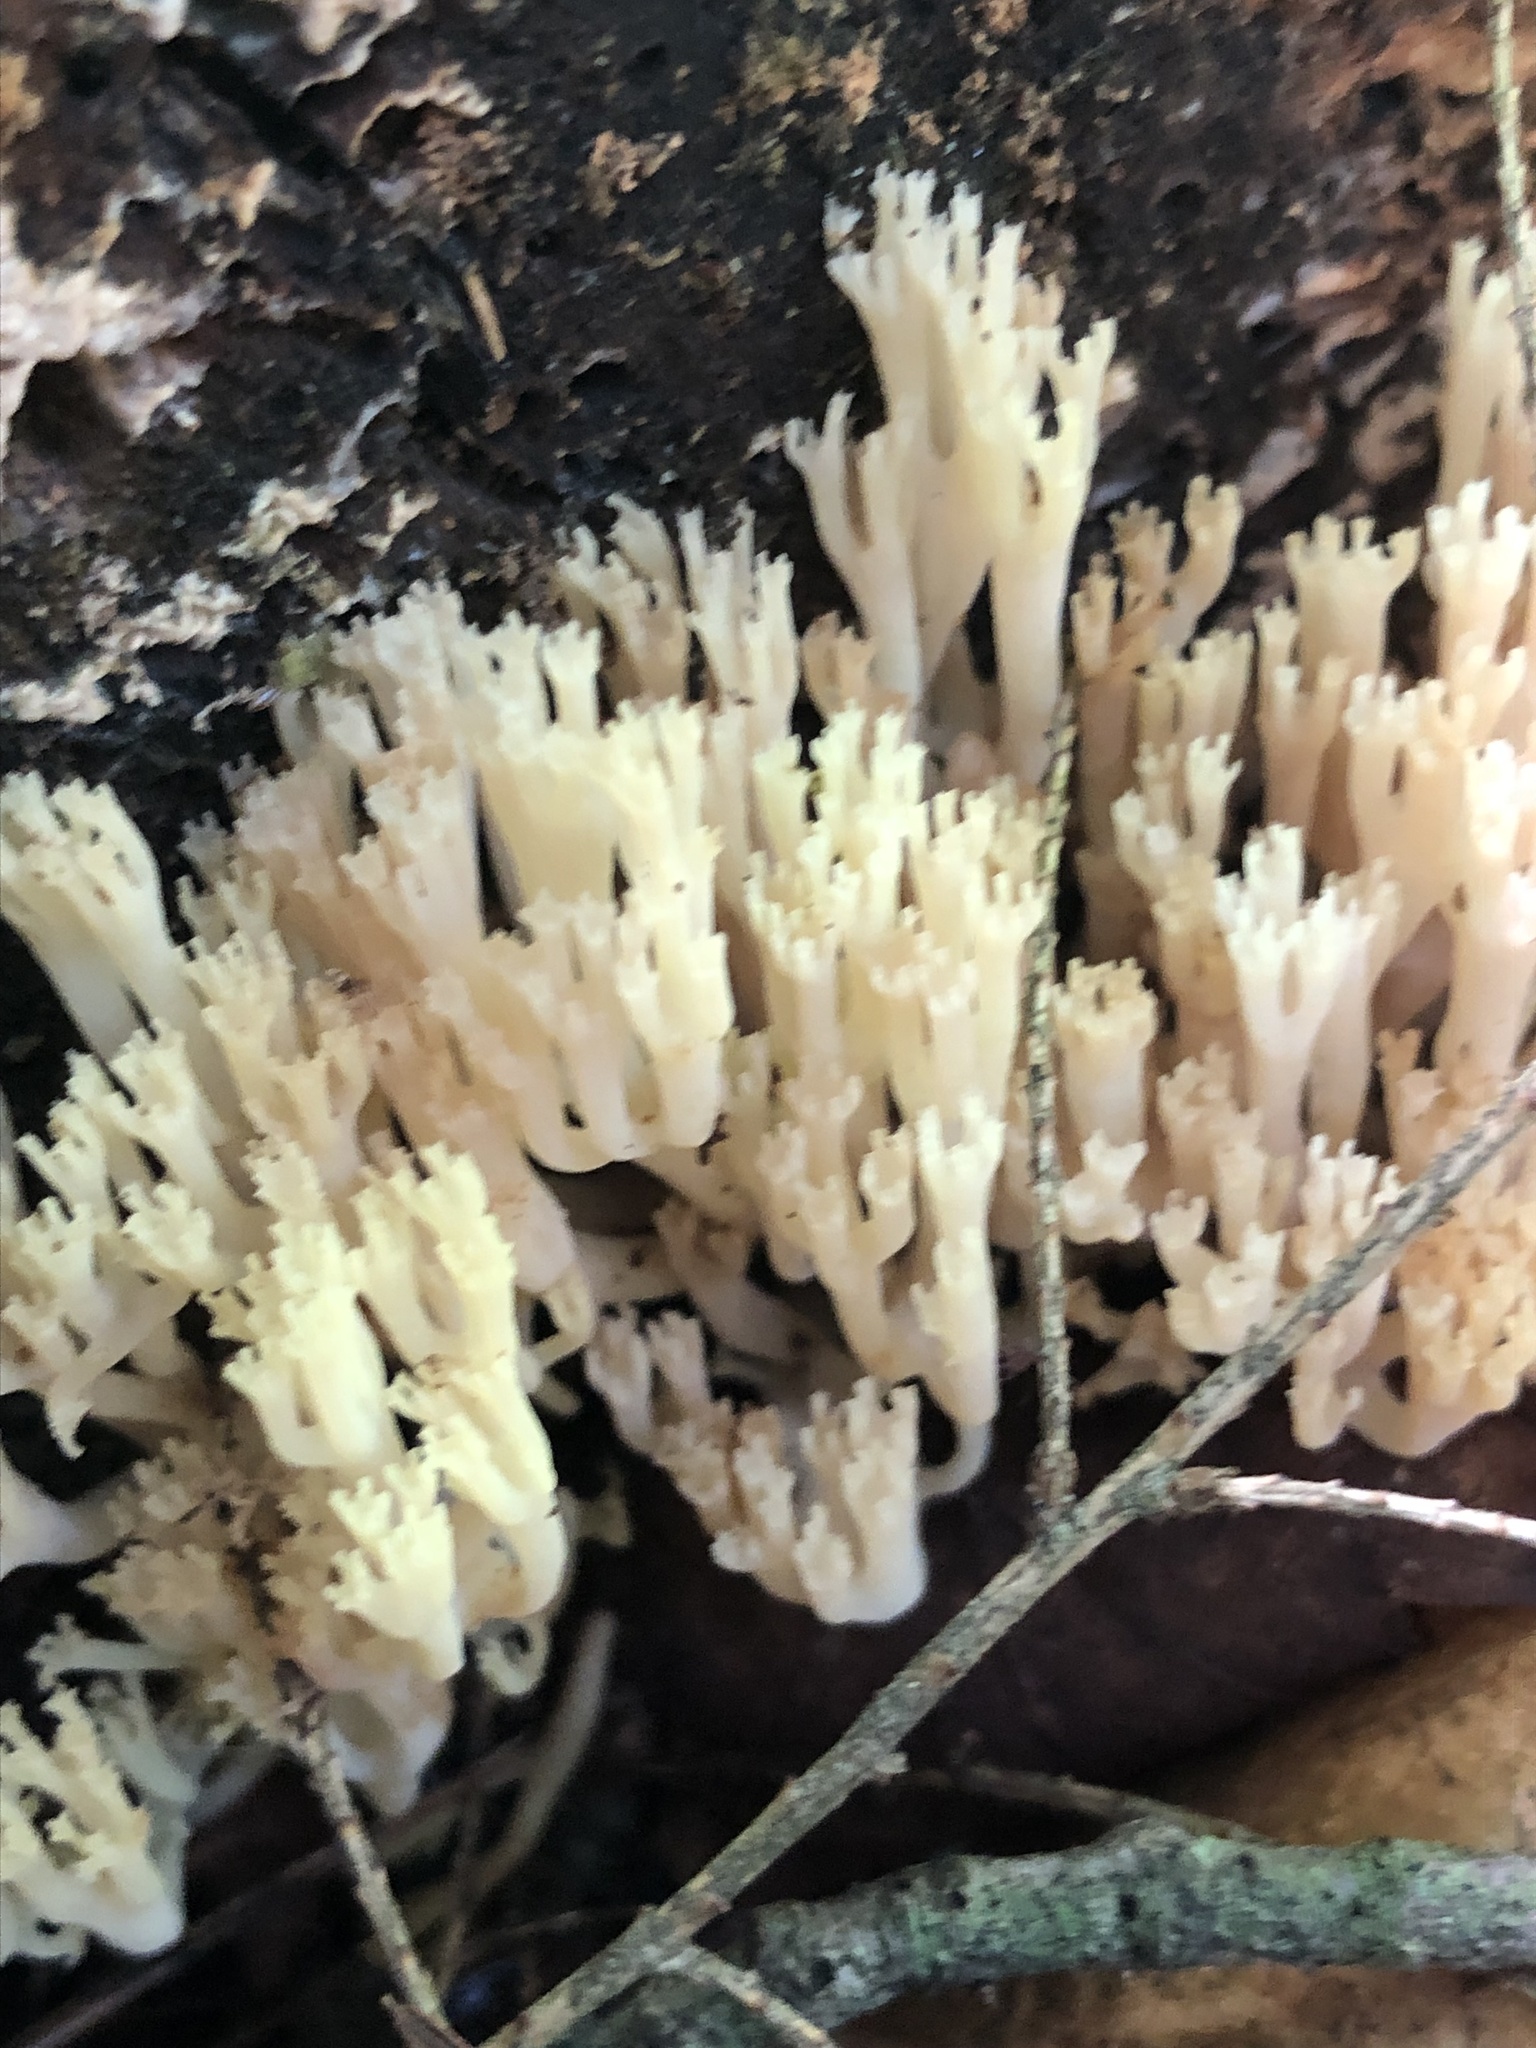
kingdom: Fungi
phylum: Basidiomycota
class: Agaricomycetes
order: Russulales
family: Auriscalpiaceae
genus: Artomyces
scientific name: Artomyces pyxidatus
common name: Crown-tipped coral fungus
